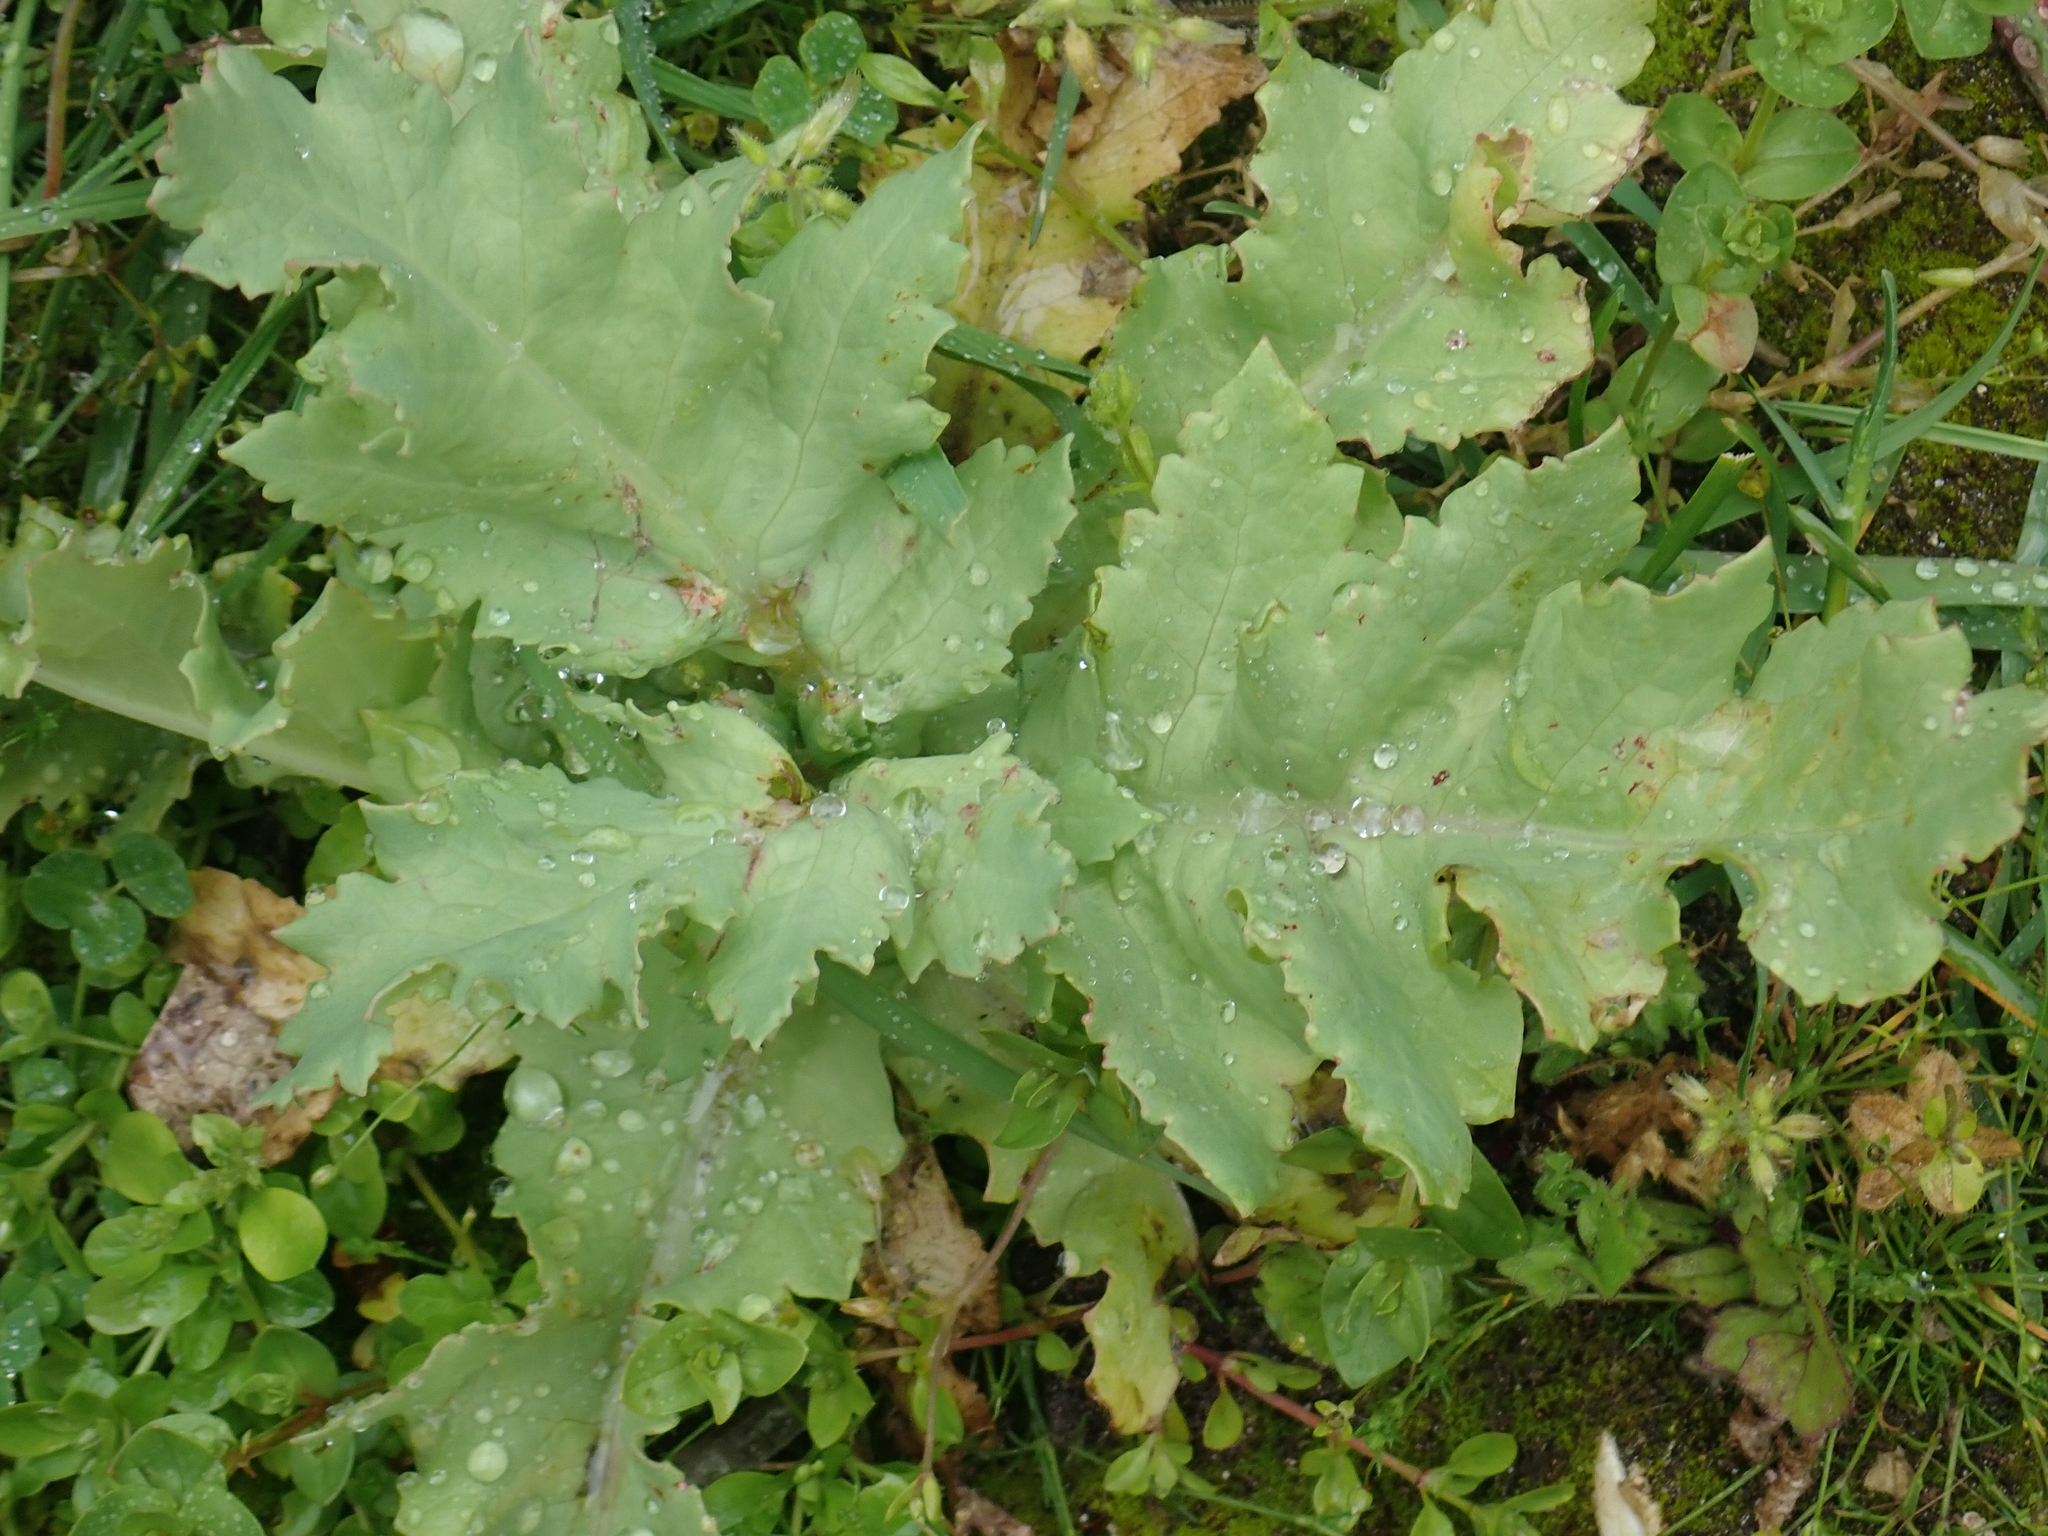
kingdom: Plantae
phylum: Tracheophyta
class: Magnoliopsida
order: Ranunculales
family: Papaveraceae
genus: Papaver
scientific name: Papaver somniferum
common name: Opium poppy
